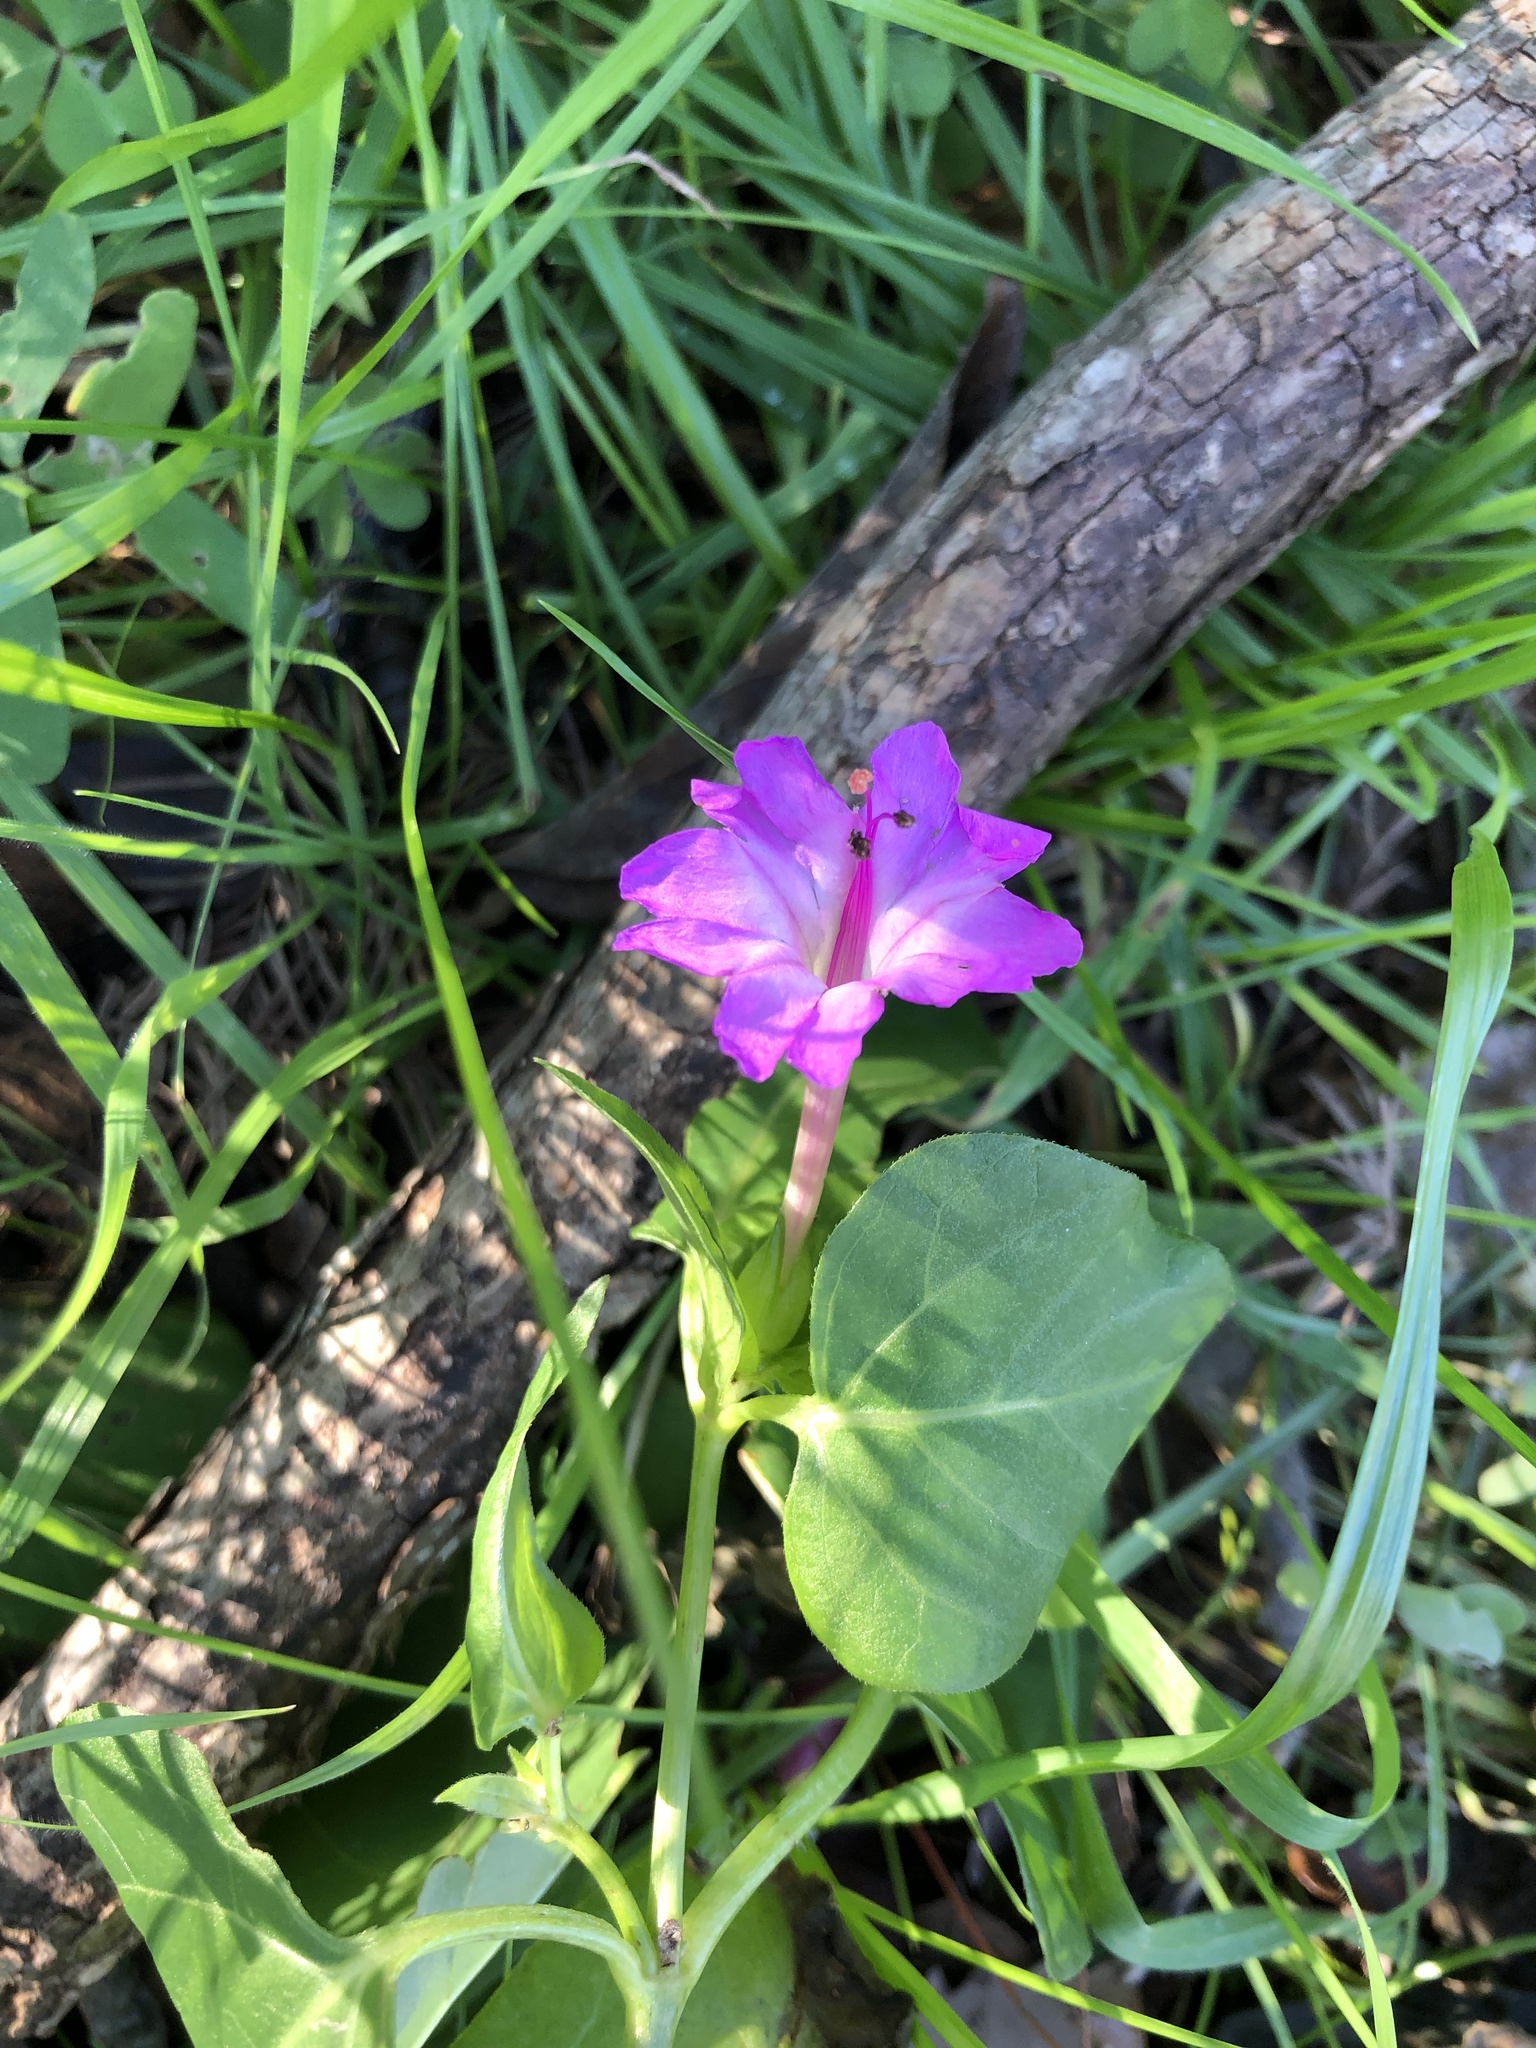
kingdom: Plantae
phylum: Tracheophyta
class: Magnoliopsida
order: Caryophyllales
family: Nyctaginaceae
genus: Mirabilis
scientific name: Mirabilis jalapa
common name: Marvel-of-peru
